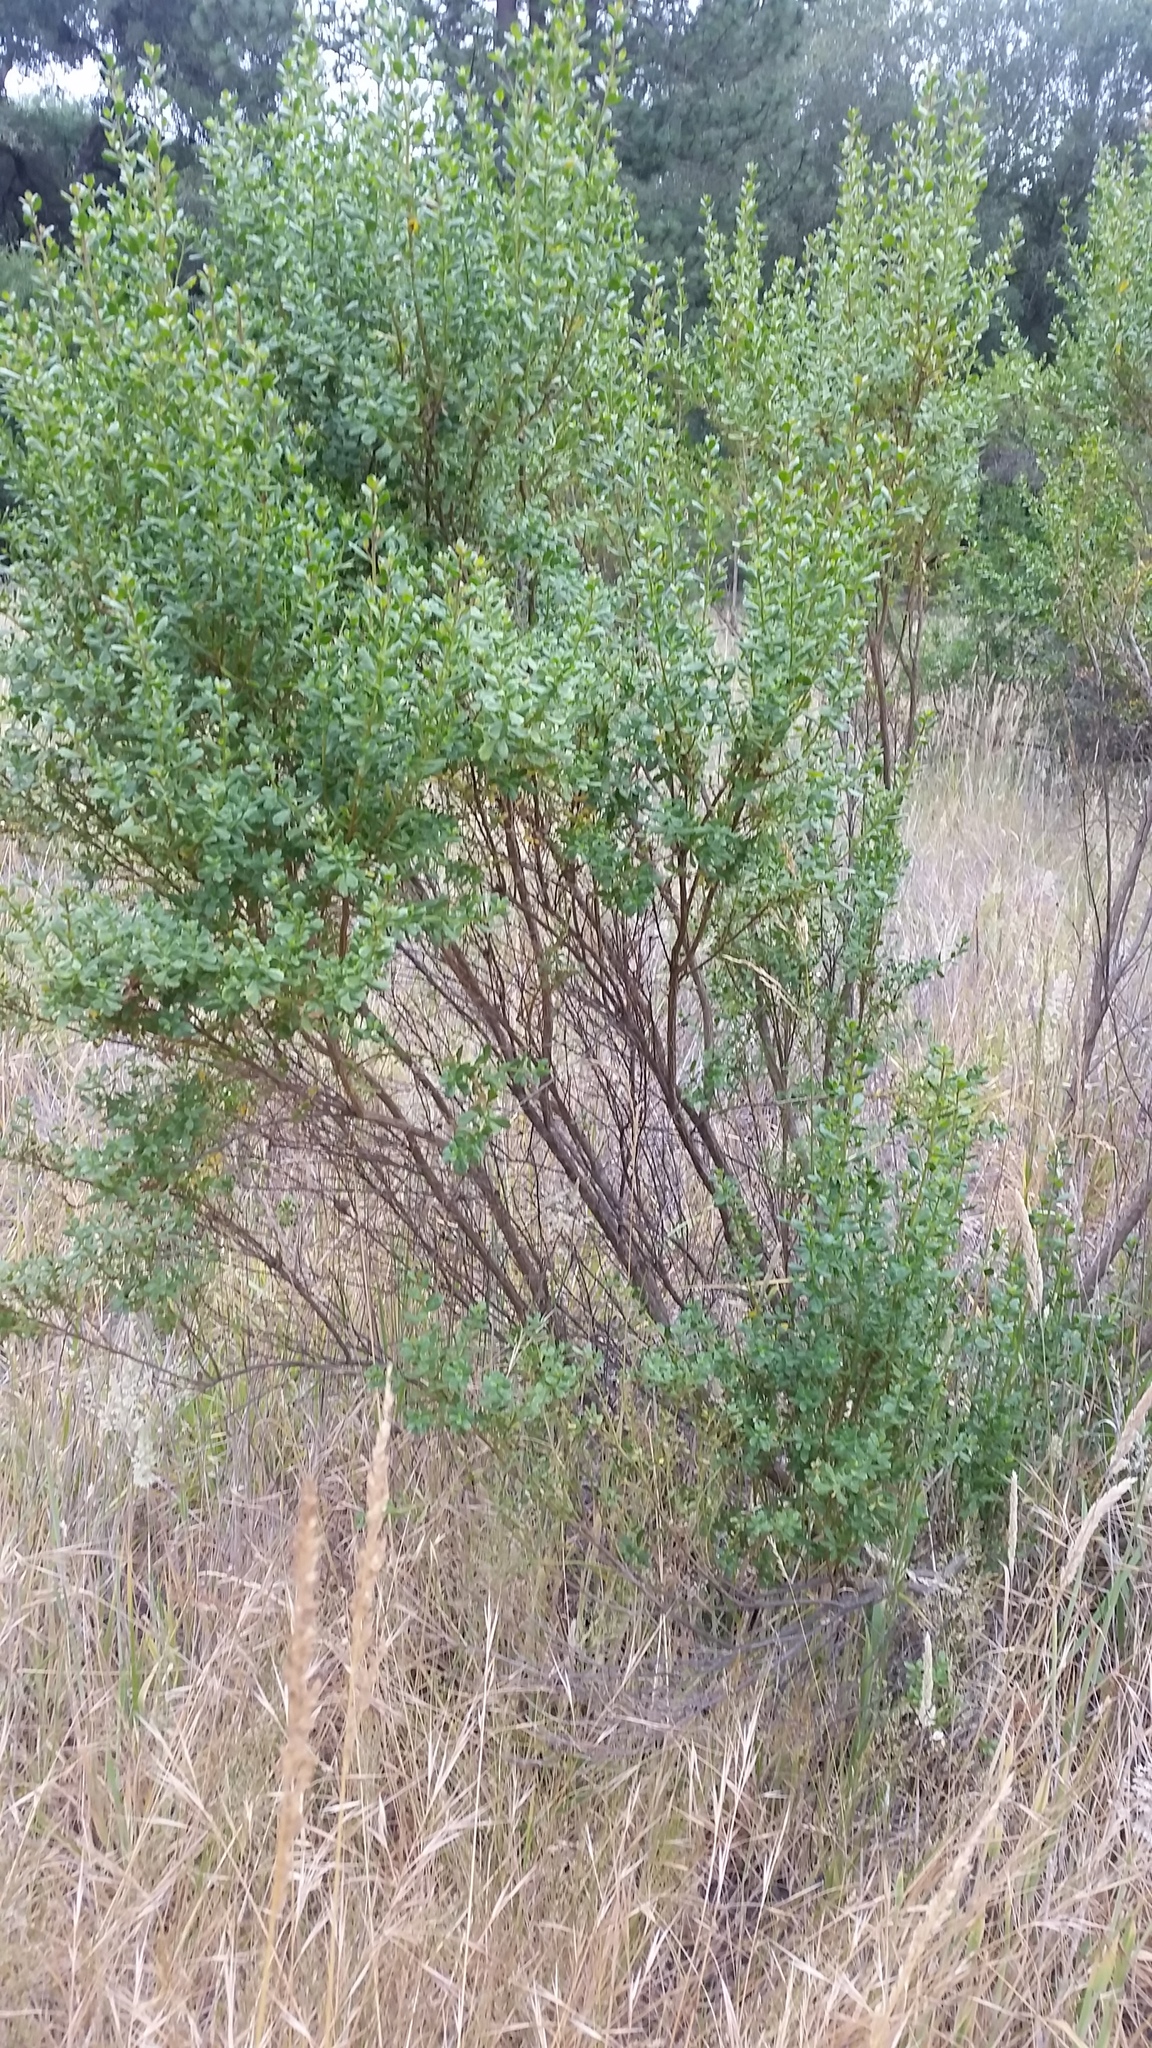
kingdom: Plantae
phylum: Tracheophyta
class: Magnoliopsida
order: Asterales
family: Asteraceae
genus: Baccharis
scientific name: Baccharis pilularis
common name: Coyotebrush
